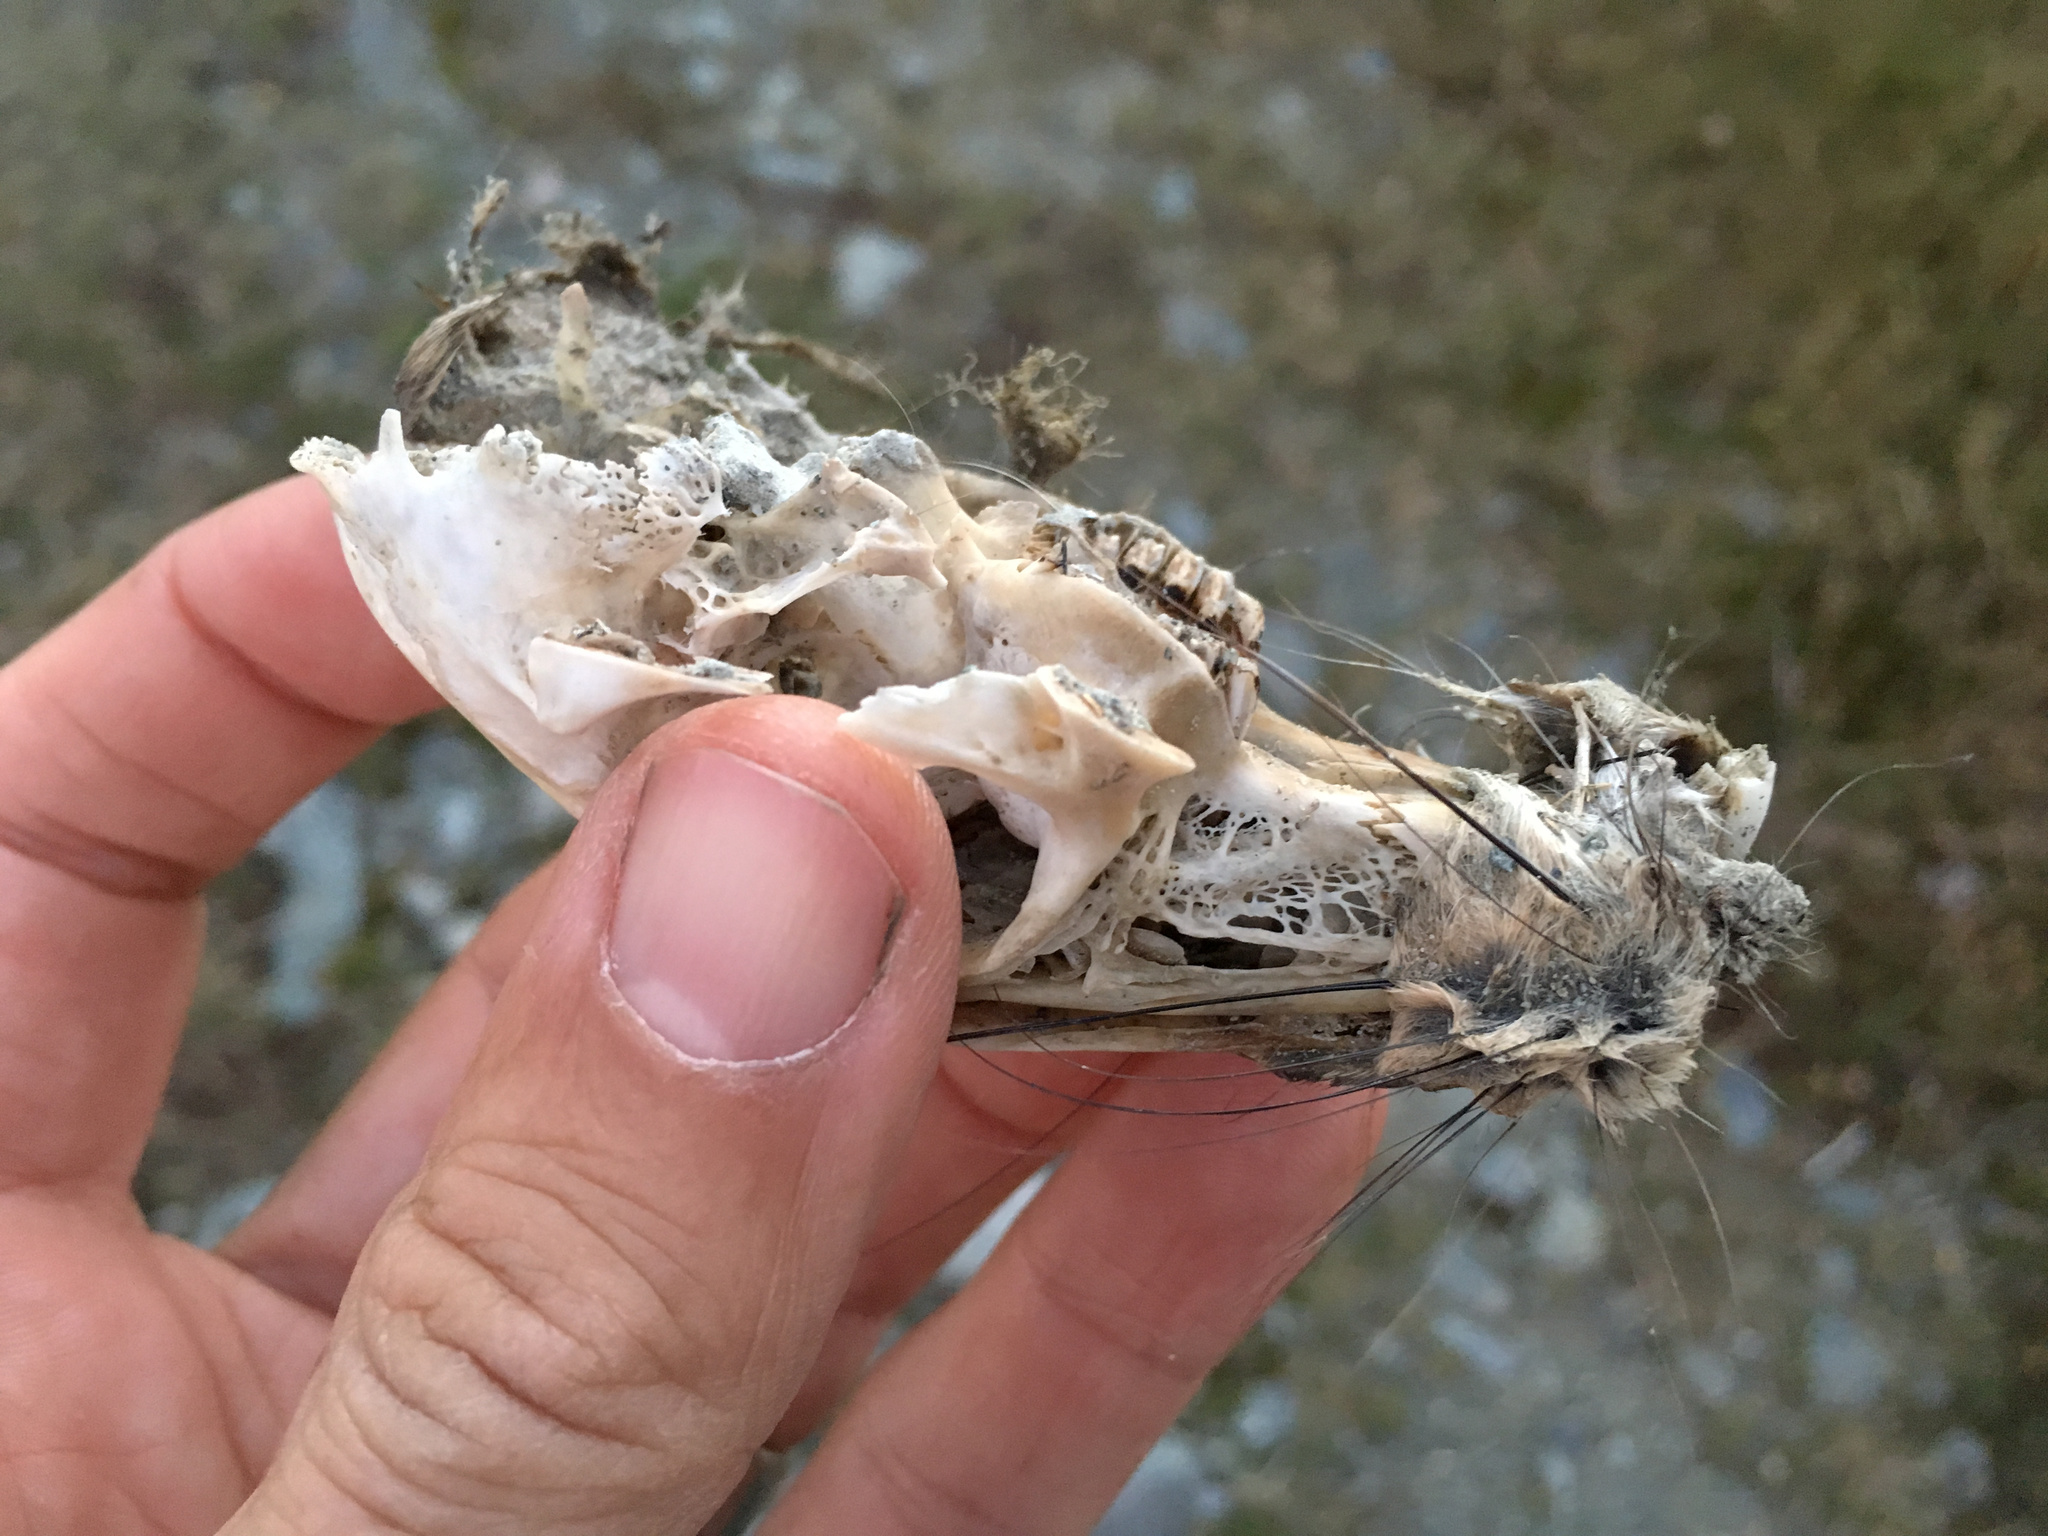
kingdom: Animalia
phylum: Chordata
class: Mammalia
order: Lagomorpha
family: Leporidae
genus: Oryctolagus
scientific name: Oryctolagus cuniculus
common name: European rabbit
